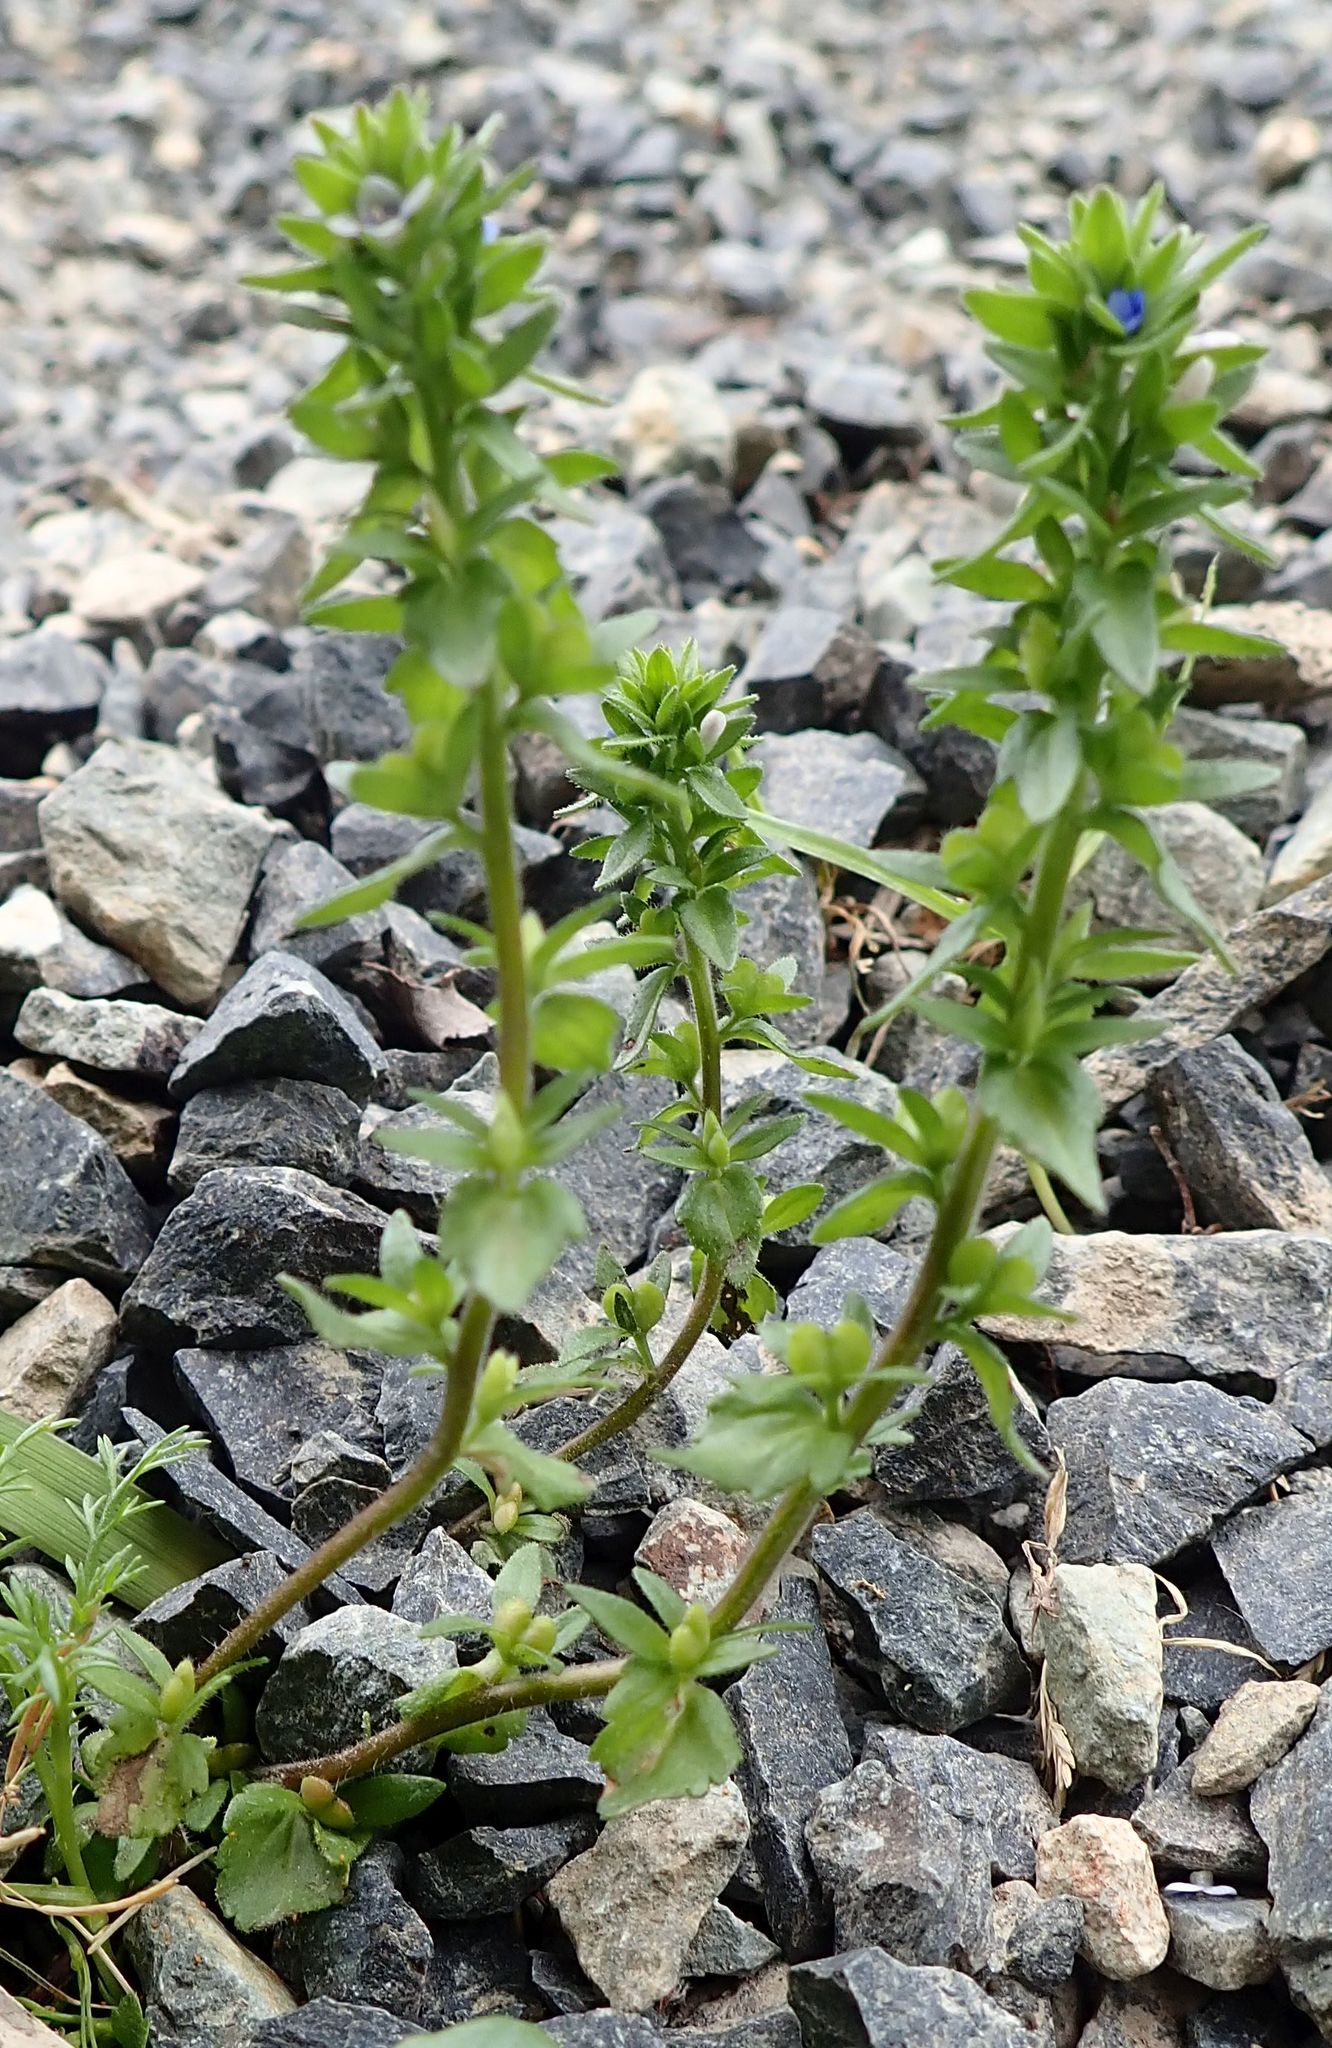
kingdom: Plantae
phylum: Tracheophyta
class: Magnoliopsida
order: Lamiales
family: Plantaginaceae
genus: Veronica
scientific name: Veronica arvensis
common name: Corn speedwell
